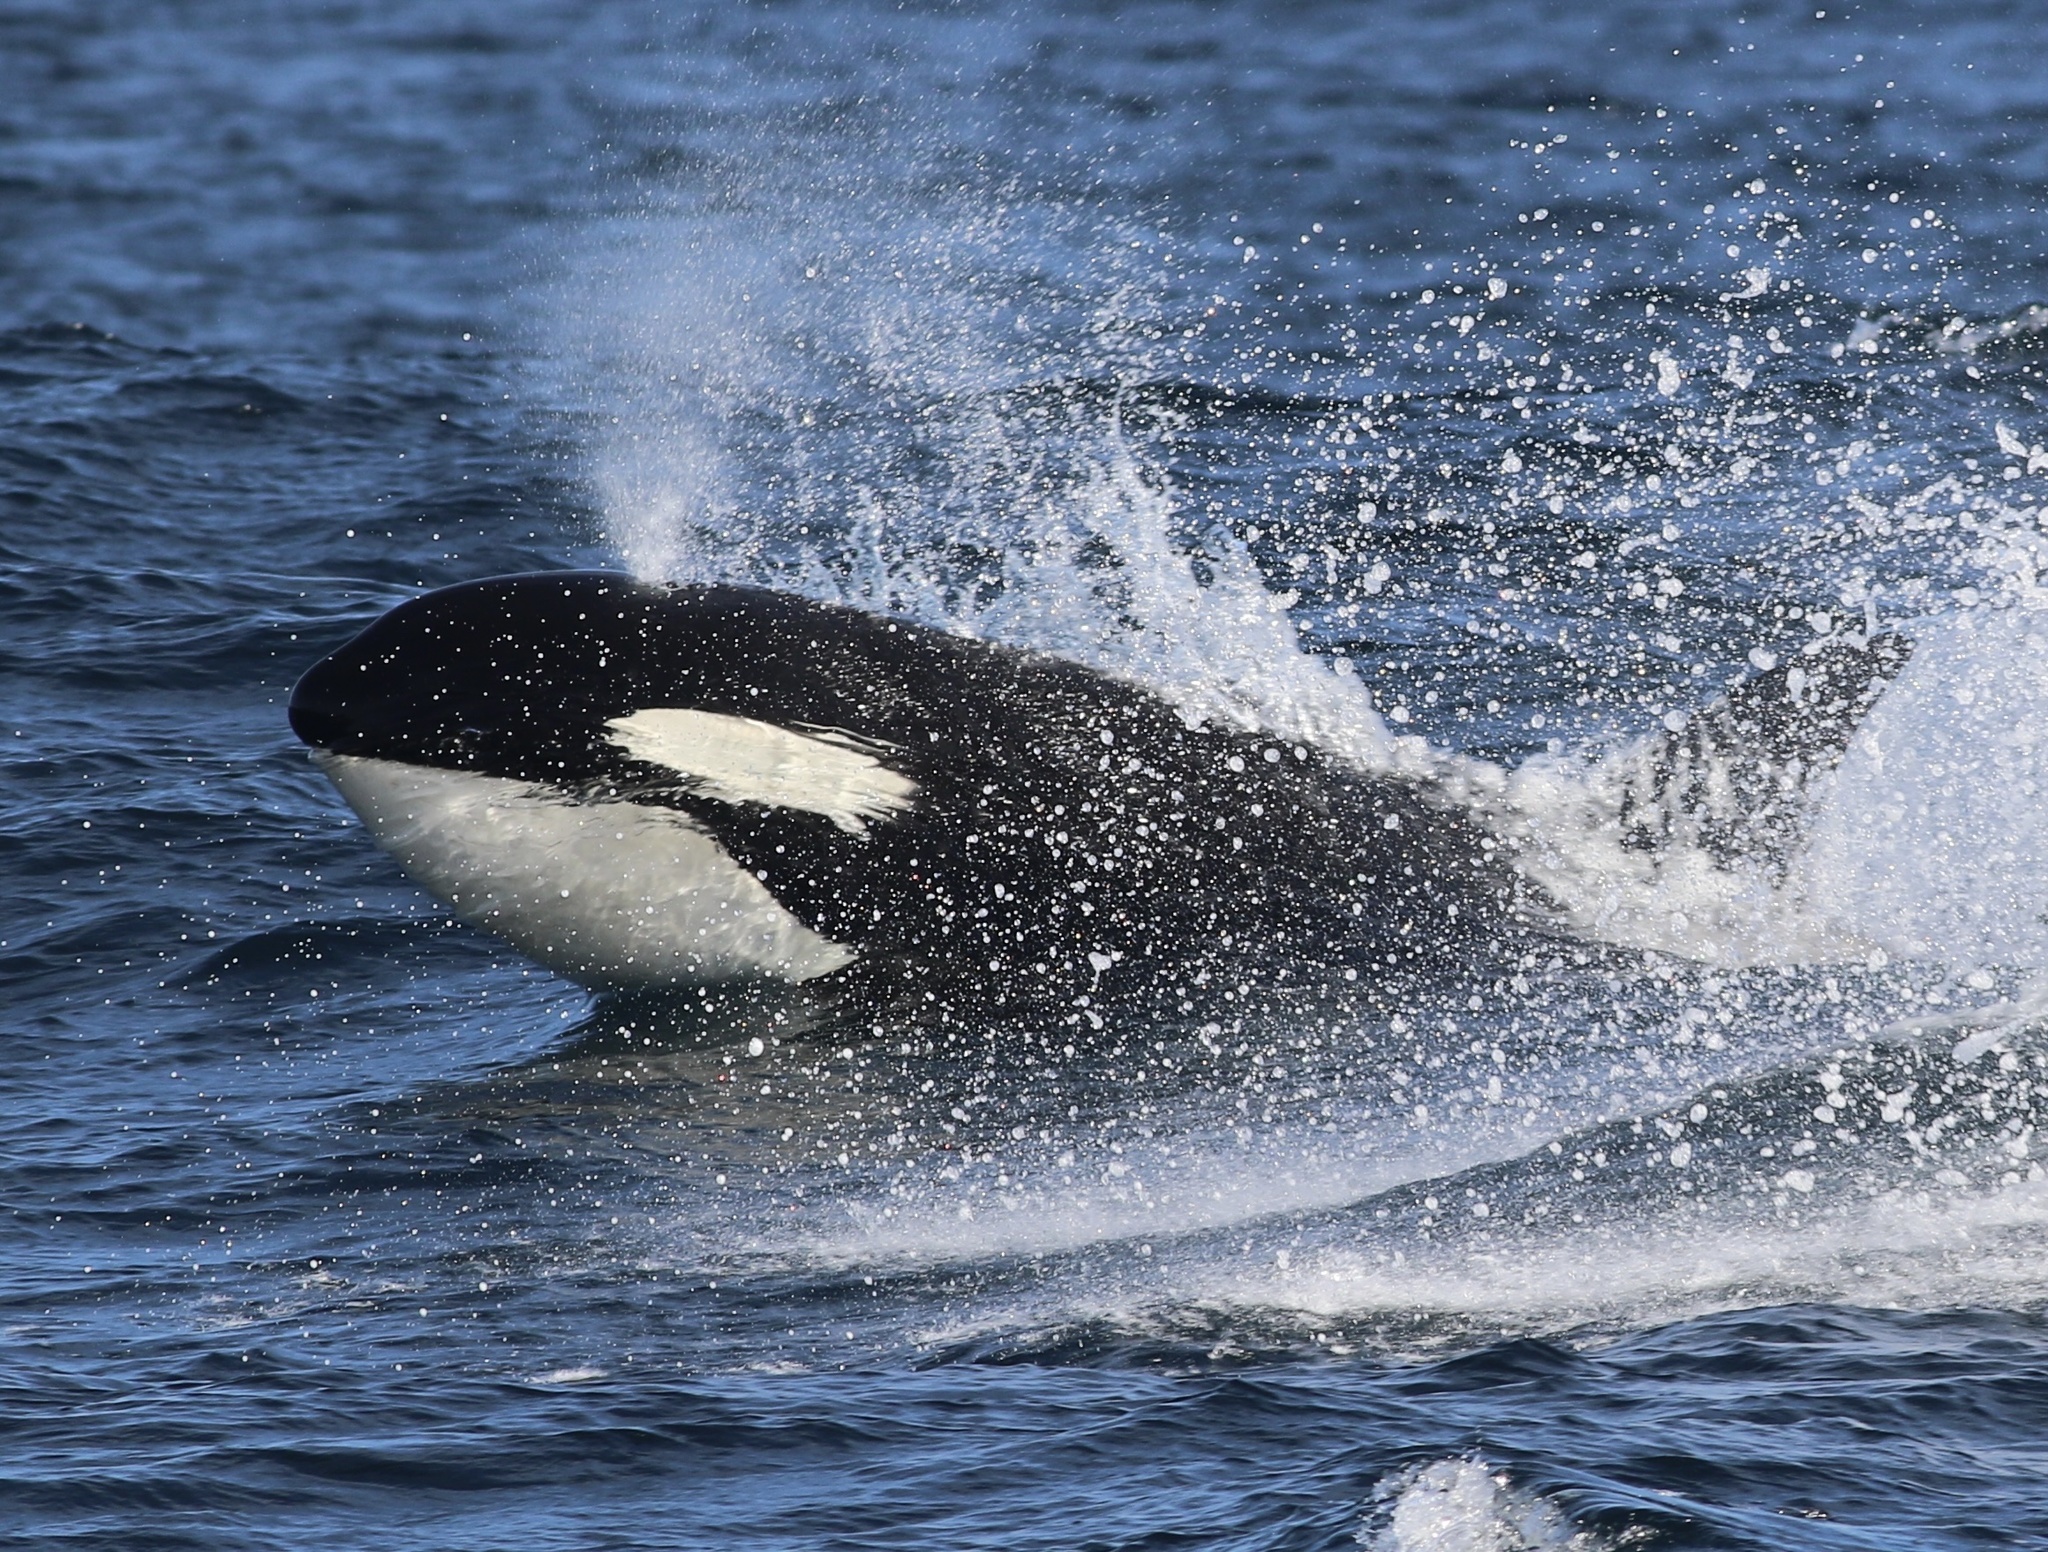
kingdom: Animalia
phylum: Chordata
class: Mammalia
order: Cetacea
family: Delphinidae
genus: Orcinus
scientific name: Orcinus orca
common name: Killer whale
